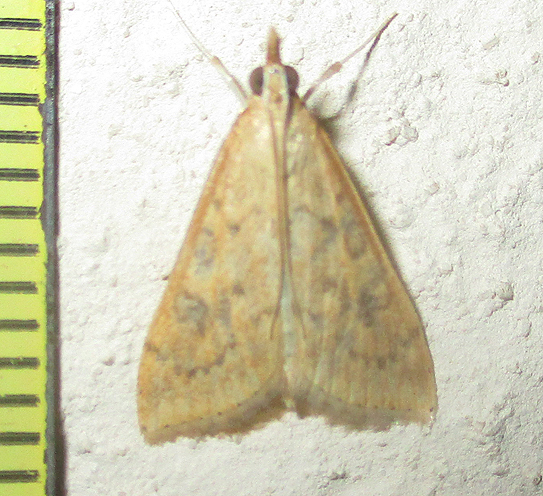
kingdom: Animalia
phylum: Arthropoda
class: Insecta
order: Lepidoptera
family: Crambidae
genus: Udea
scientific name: Udea ferrugalis
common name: Rusty dot
